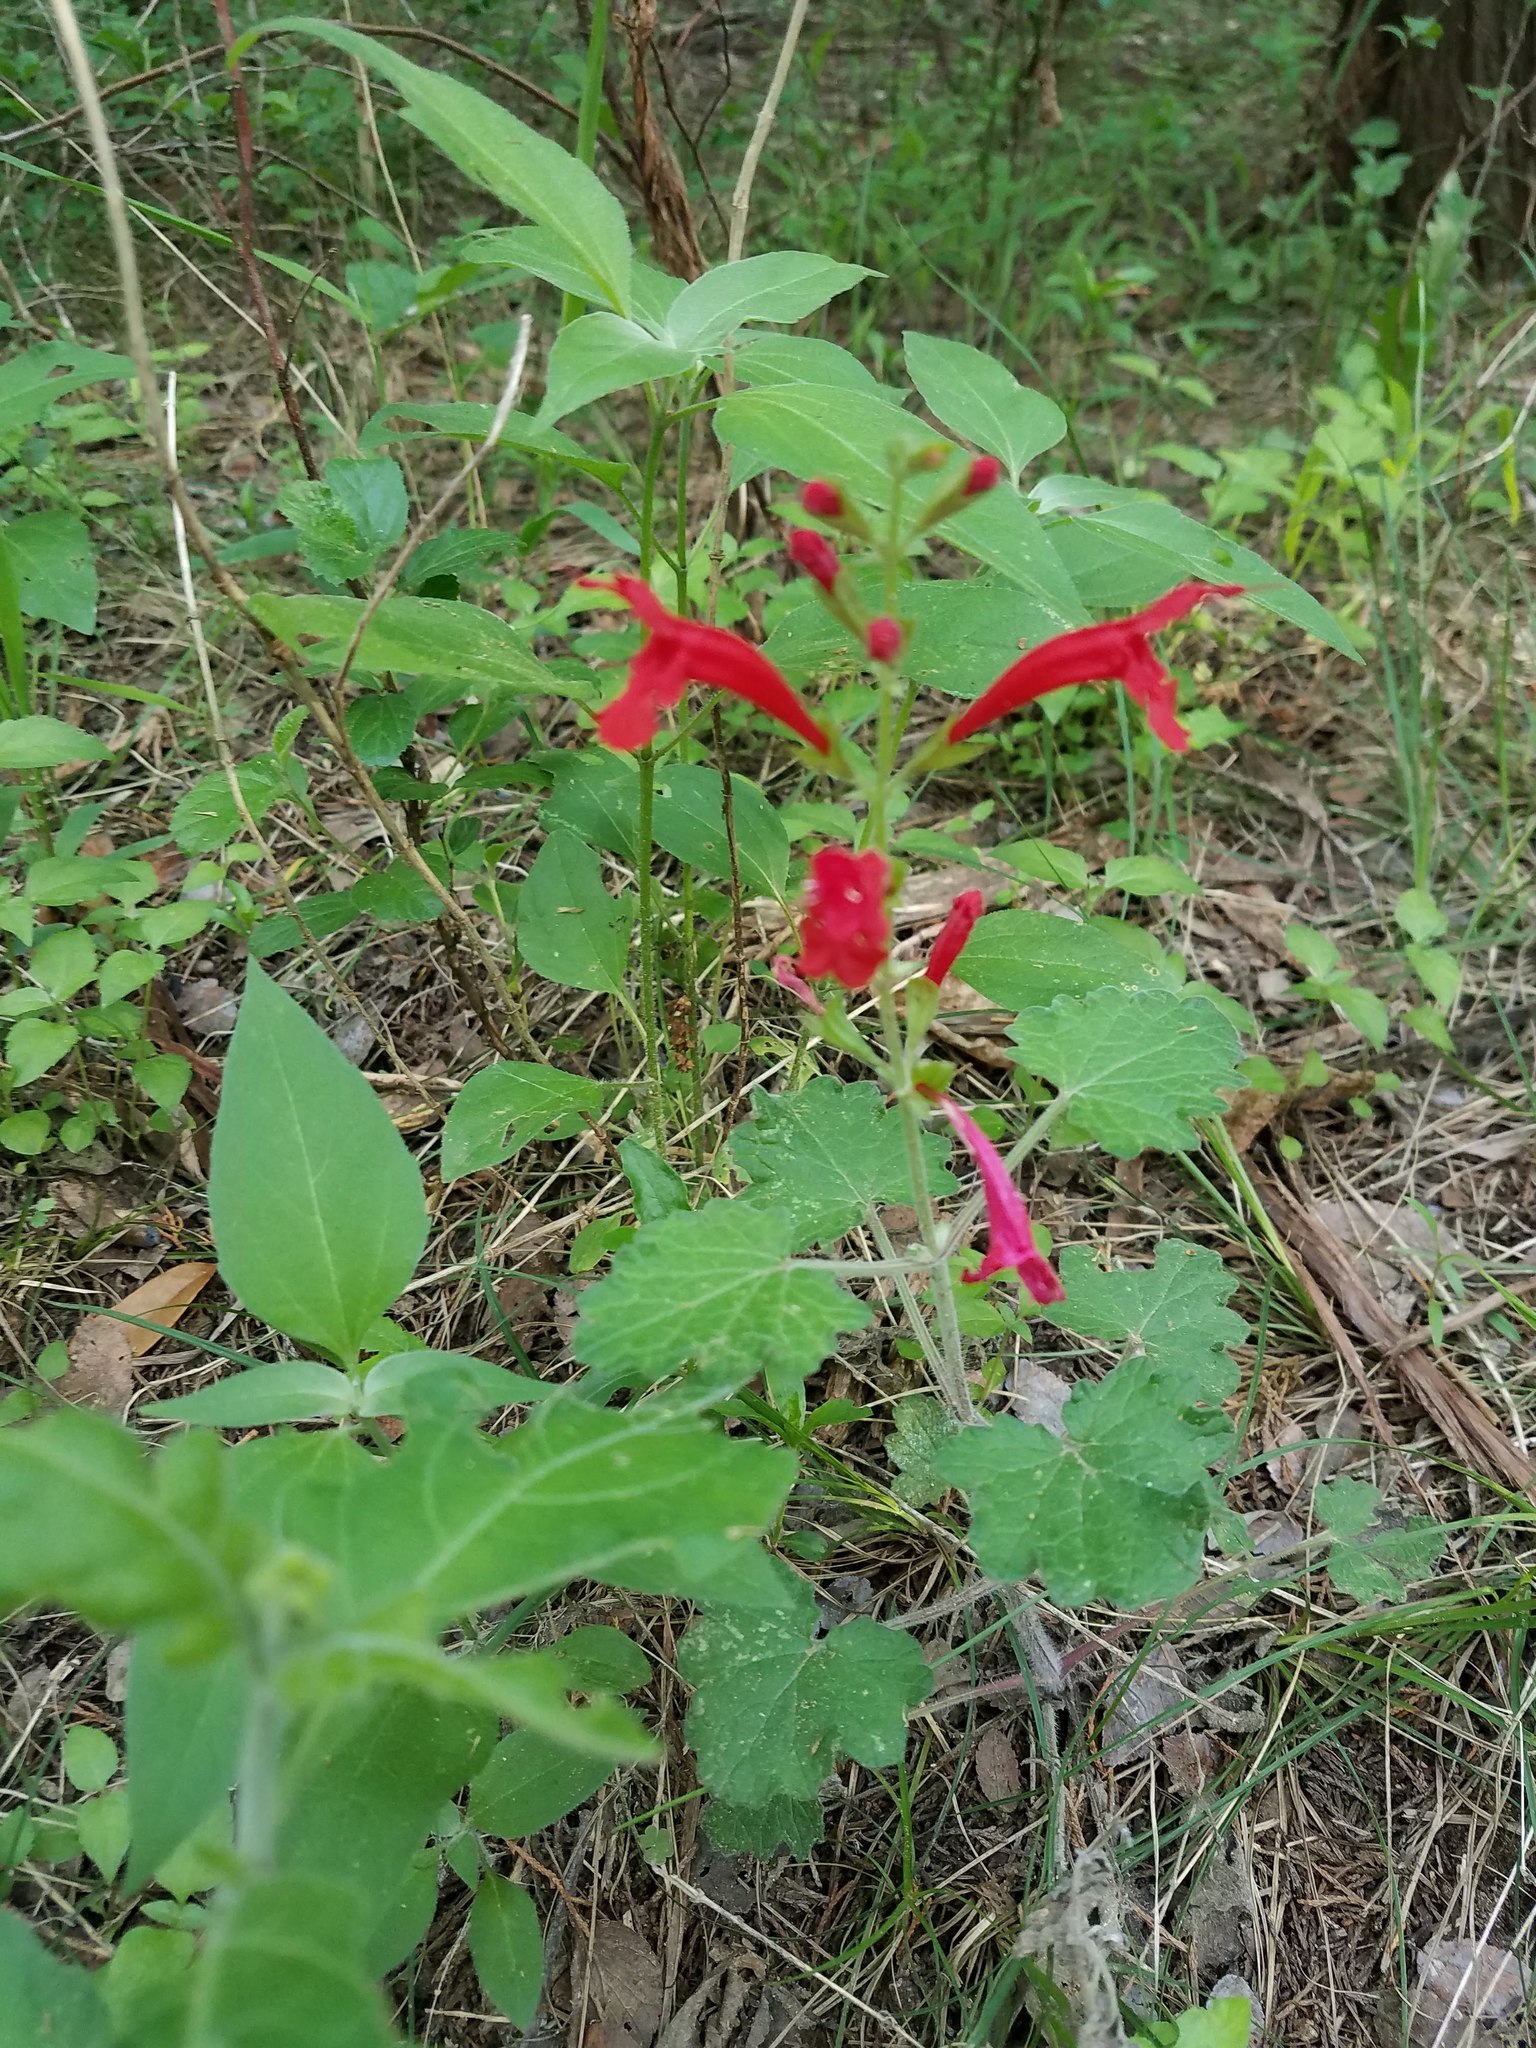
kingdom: Plantae
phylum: Tracheophyta
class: Magnoliopsida
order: Lamiales
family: Lamiaceae
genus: Salvia
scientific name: Salvia roemeriana
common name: Cedar sage
